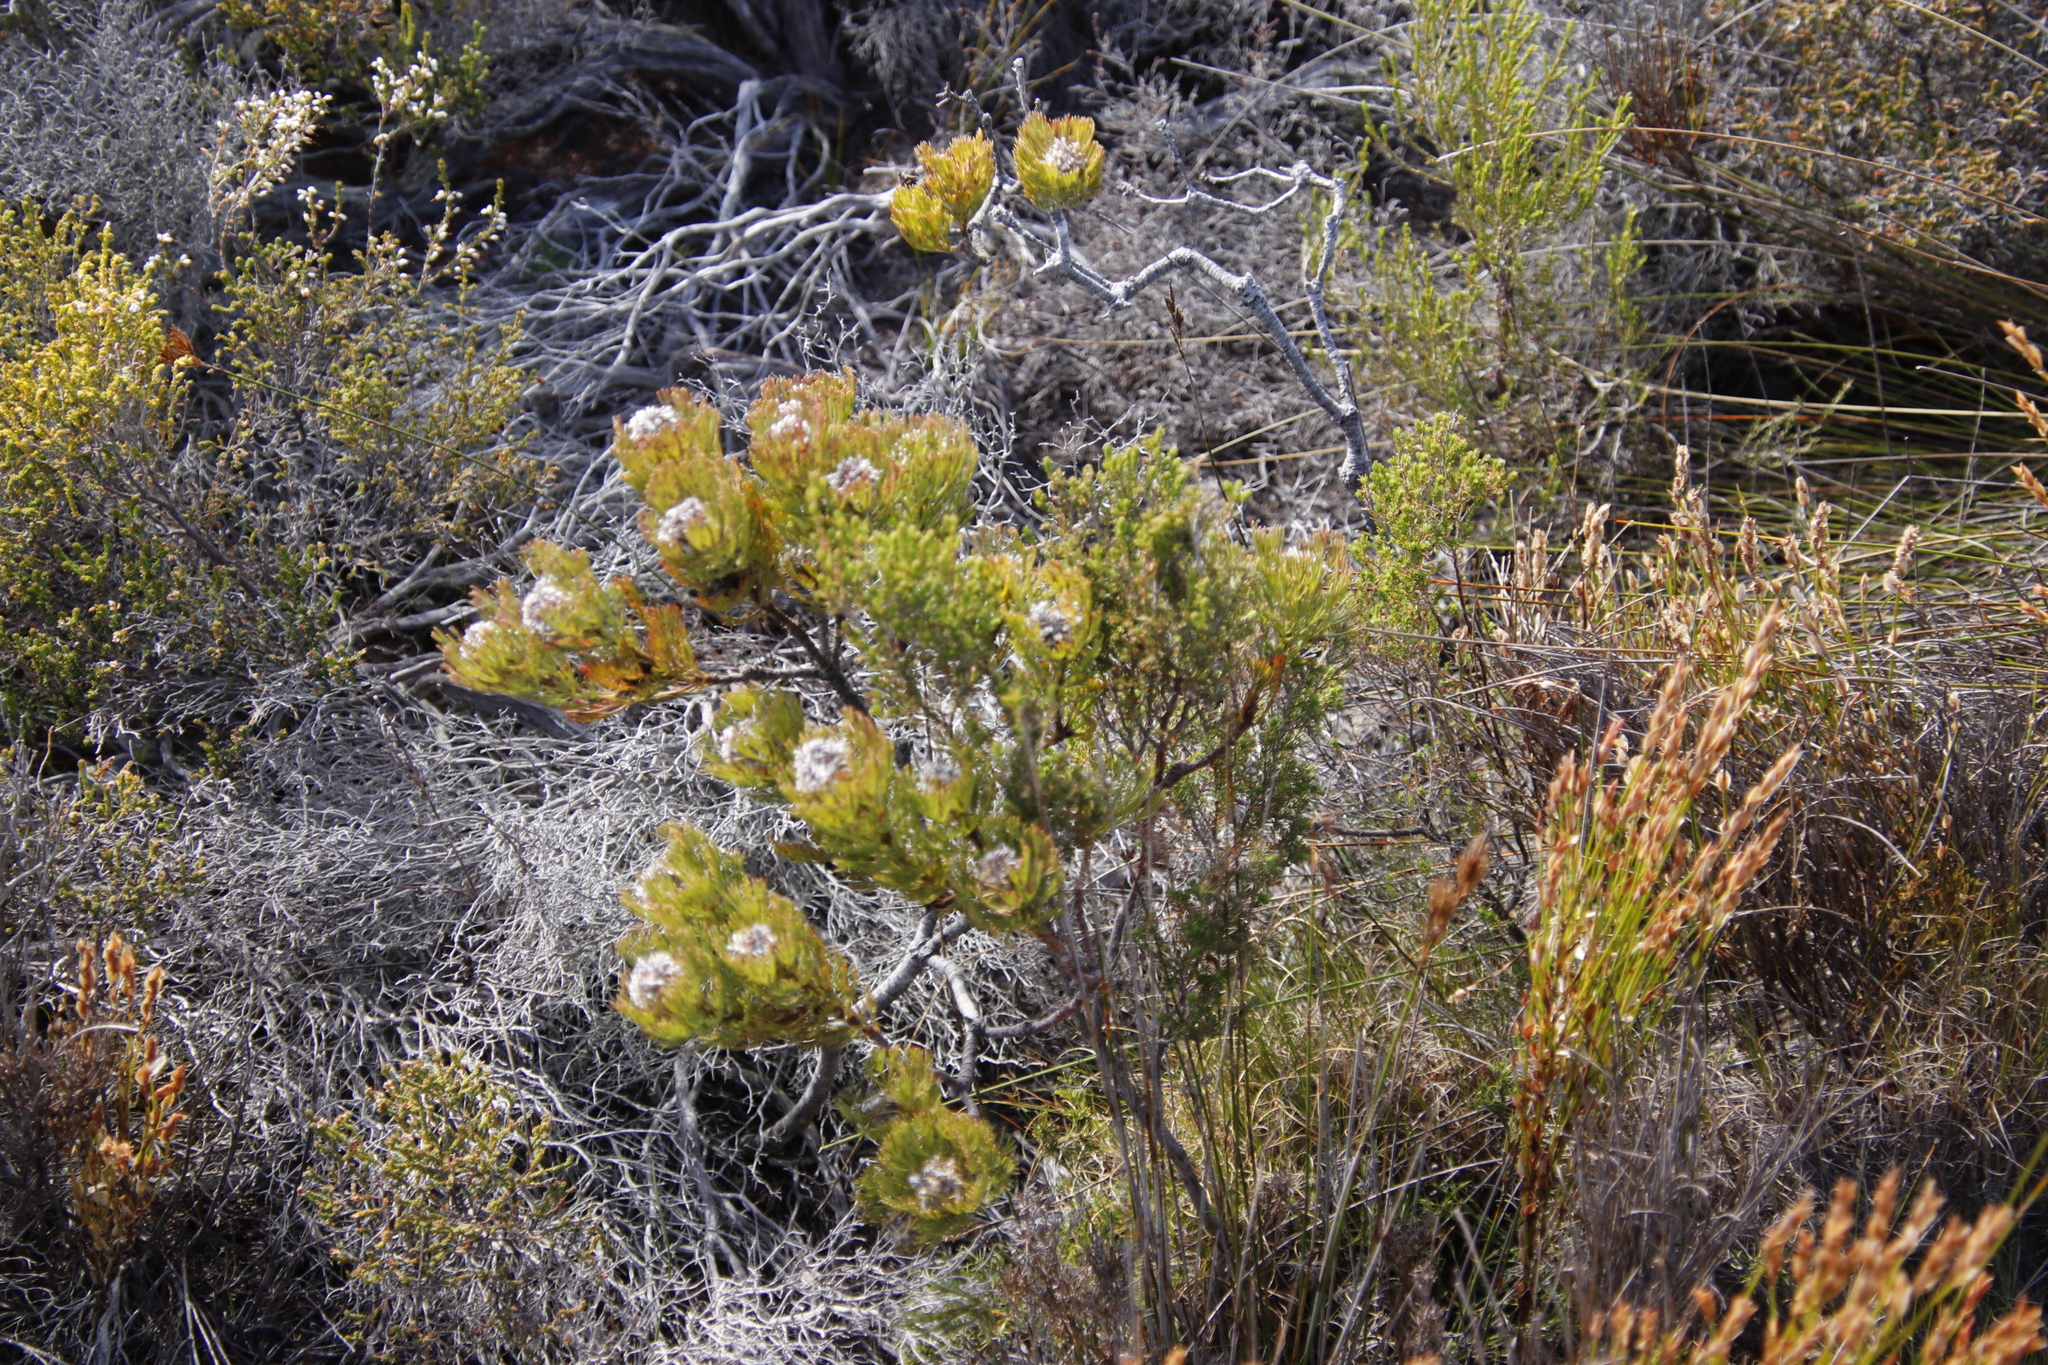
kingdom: Plantae
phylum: Tracheophyta
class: Magnoliopsida
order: Proteales
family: Proteaceae
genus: Serruria
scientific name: Serruria villosa
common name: Golden spiderhead
